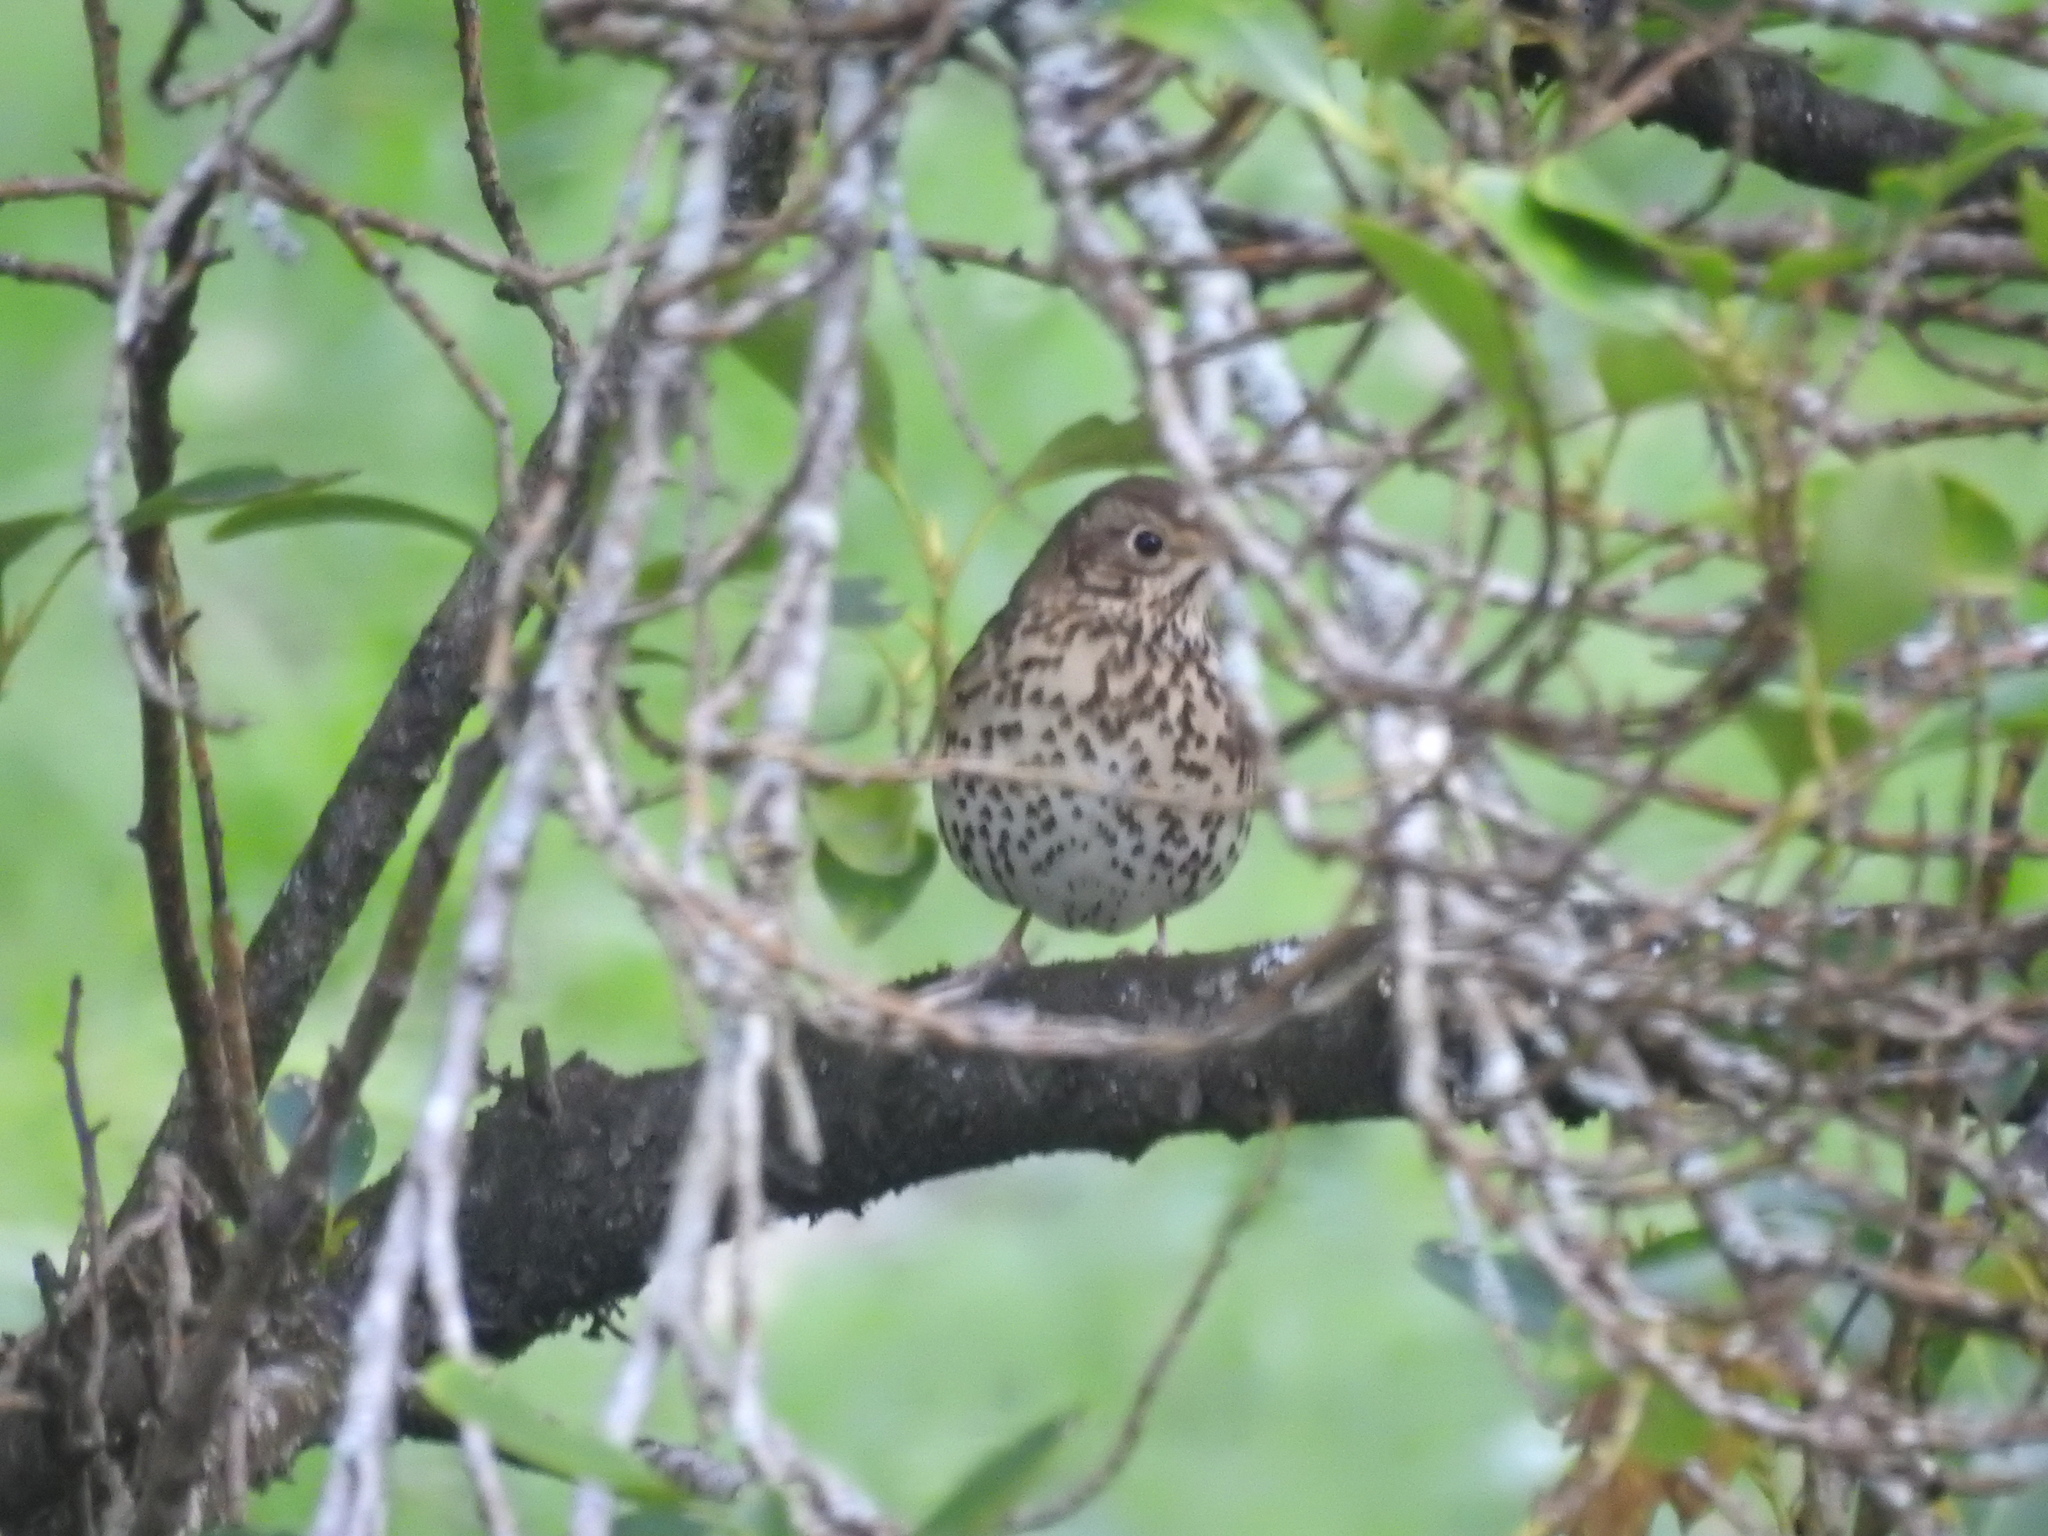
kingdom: Animalia
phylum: Chordata
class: Aves
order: Passeriformes
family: Turdidae
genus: Turdus
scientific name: Turdus philomelos
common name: Song thrush
